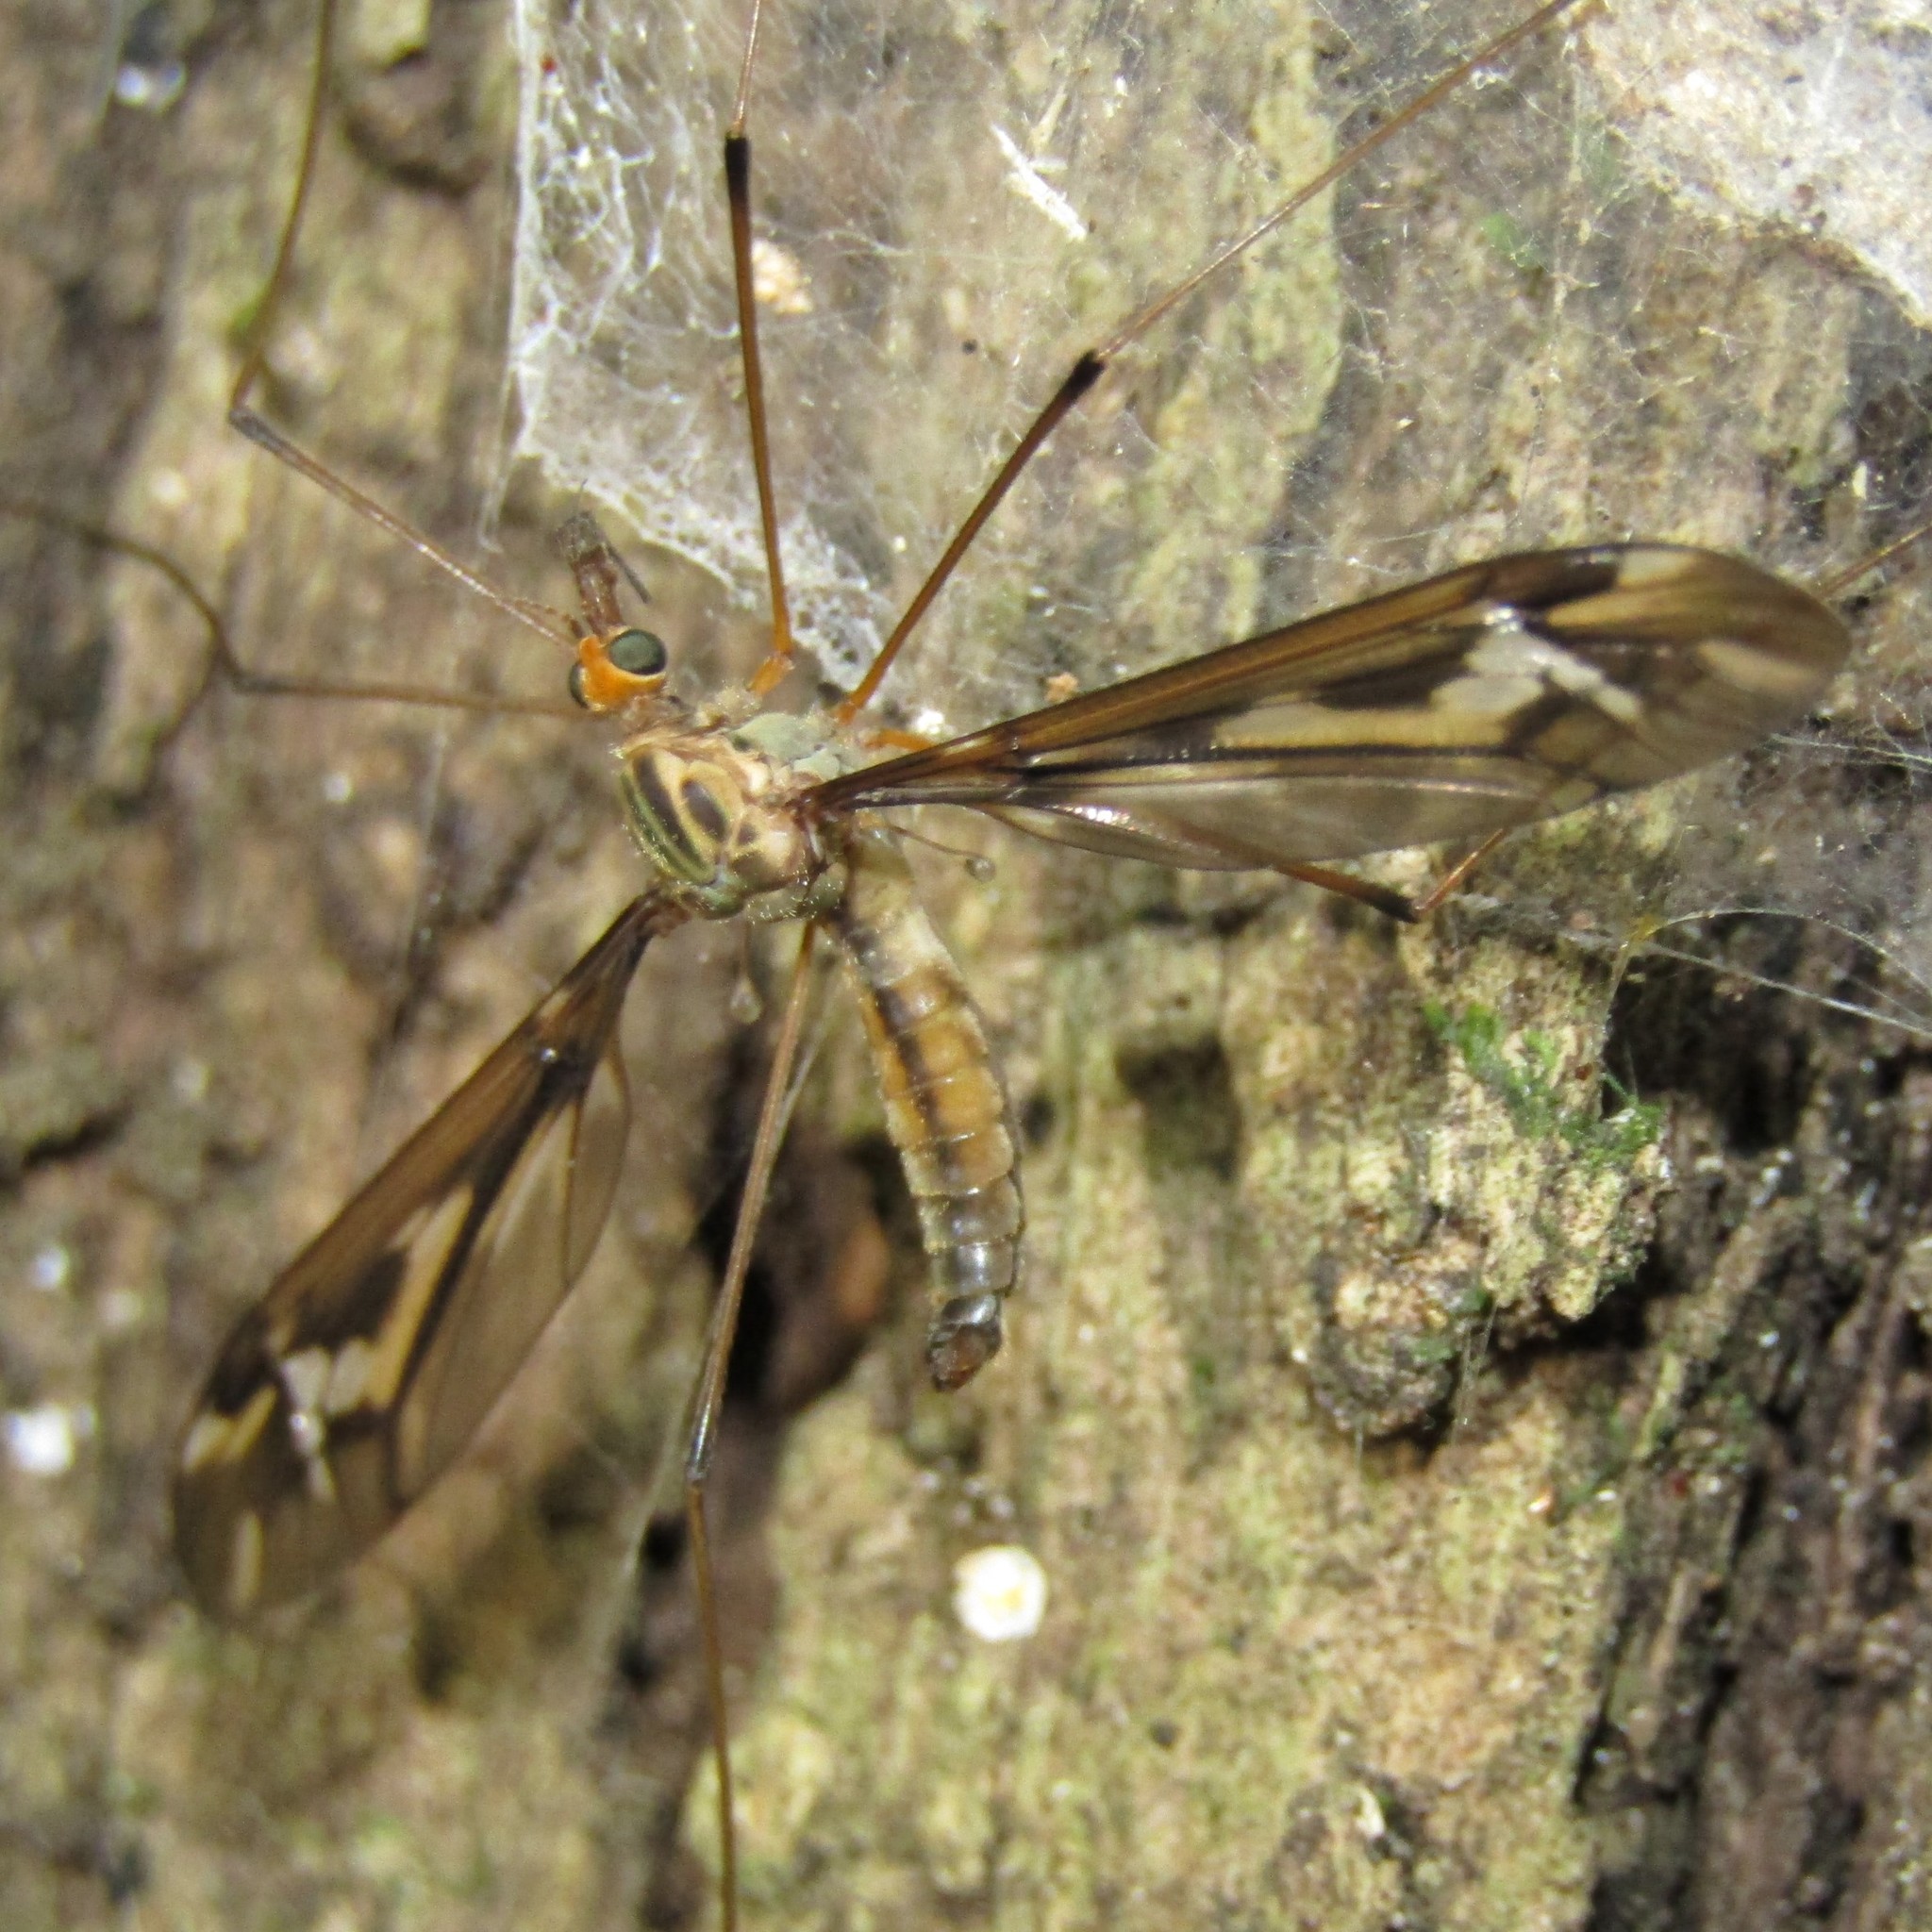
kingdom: Animalia
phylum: Arthropoda
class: Insecta
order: Diptera
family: Tipulidae
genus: Leptotarsus
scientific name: Leptotarsus huttoni
